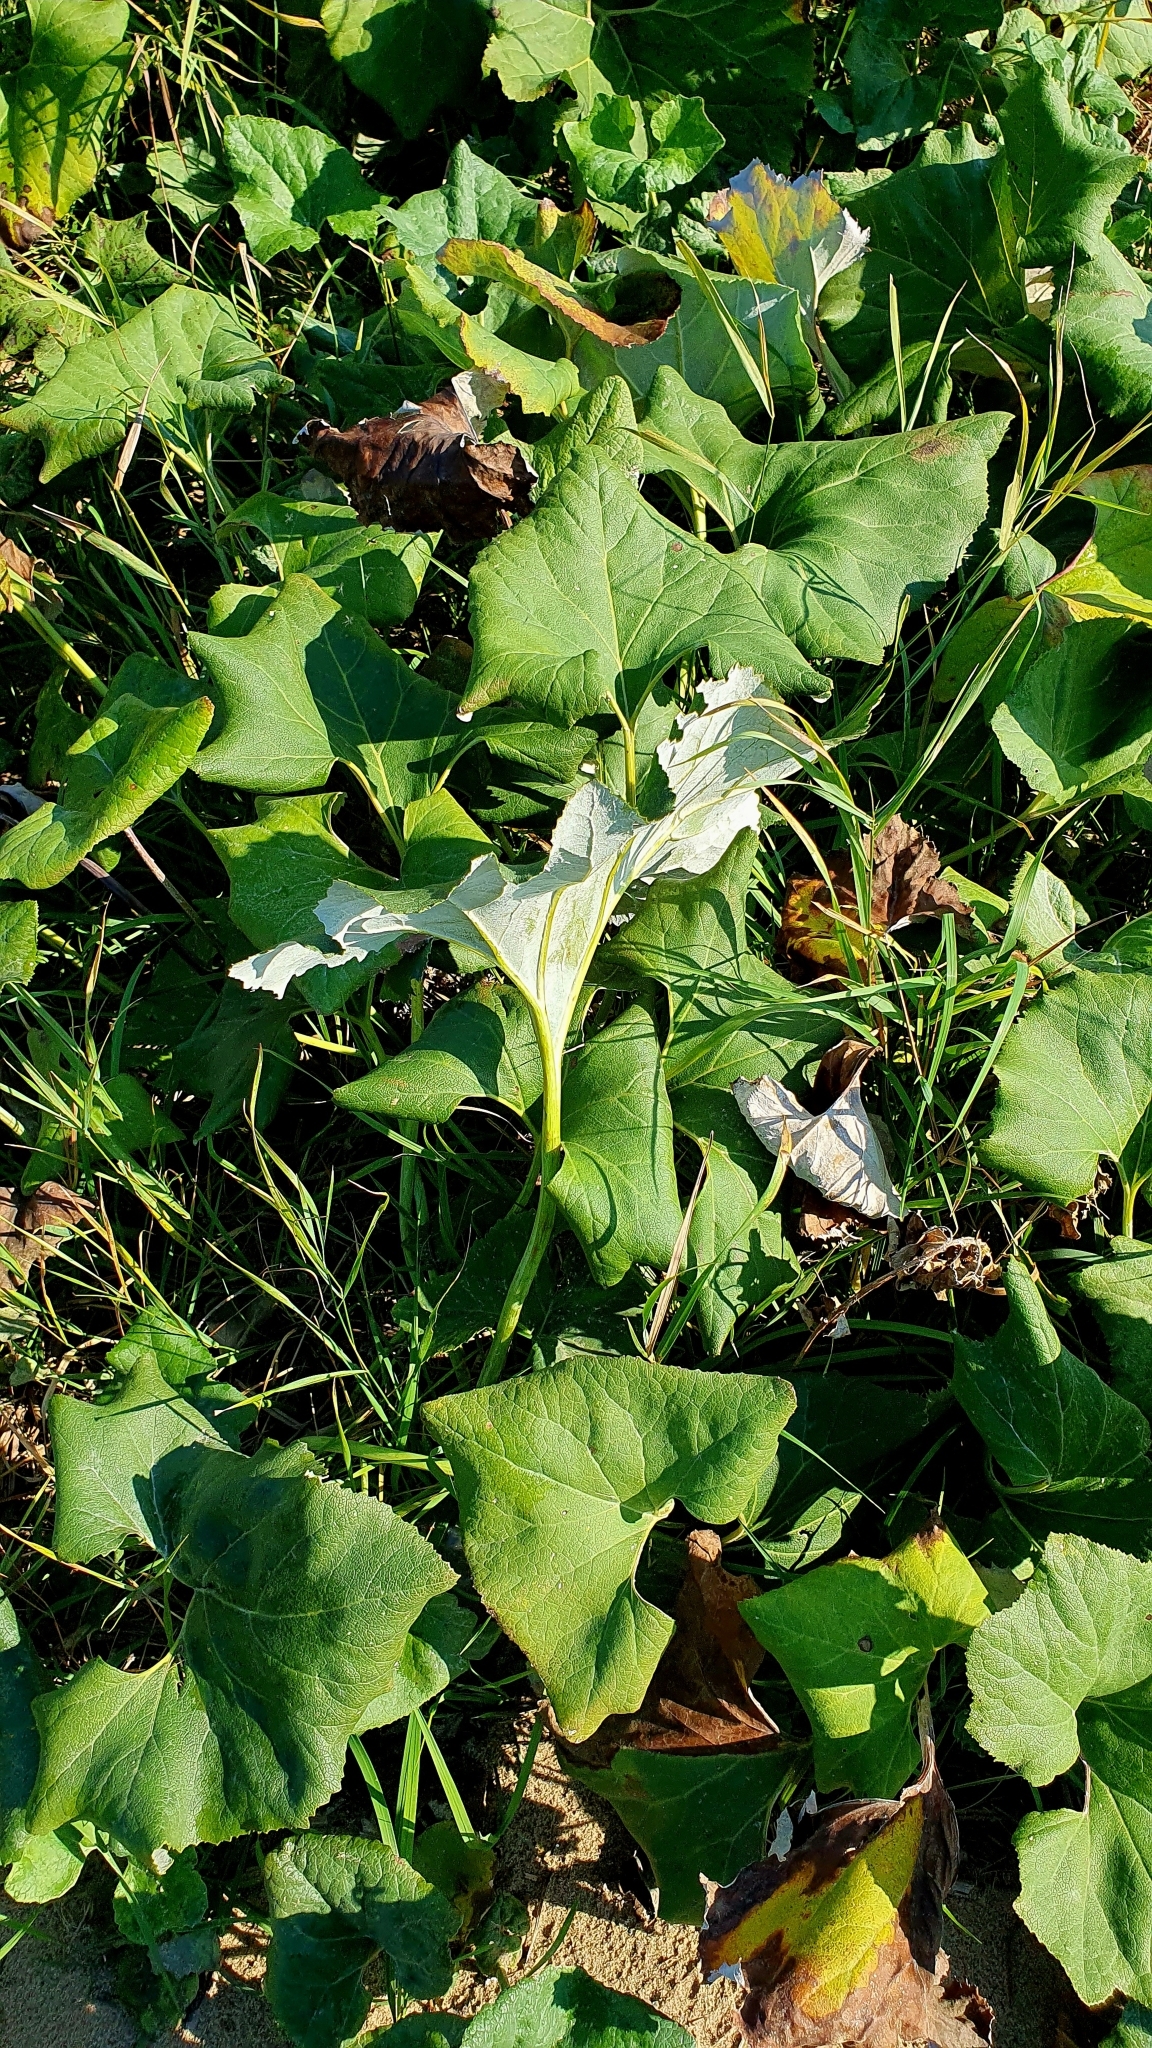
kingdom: Plantae
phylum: Tracheophyta
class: Magnoliopsida
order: Asterales
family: Asteraceae
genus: Petasites
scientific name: Petasites spurius
